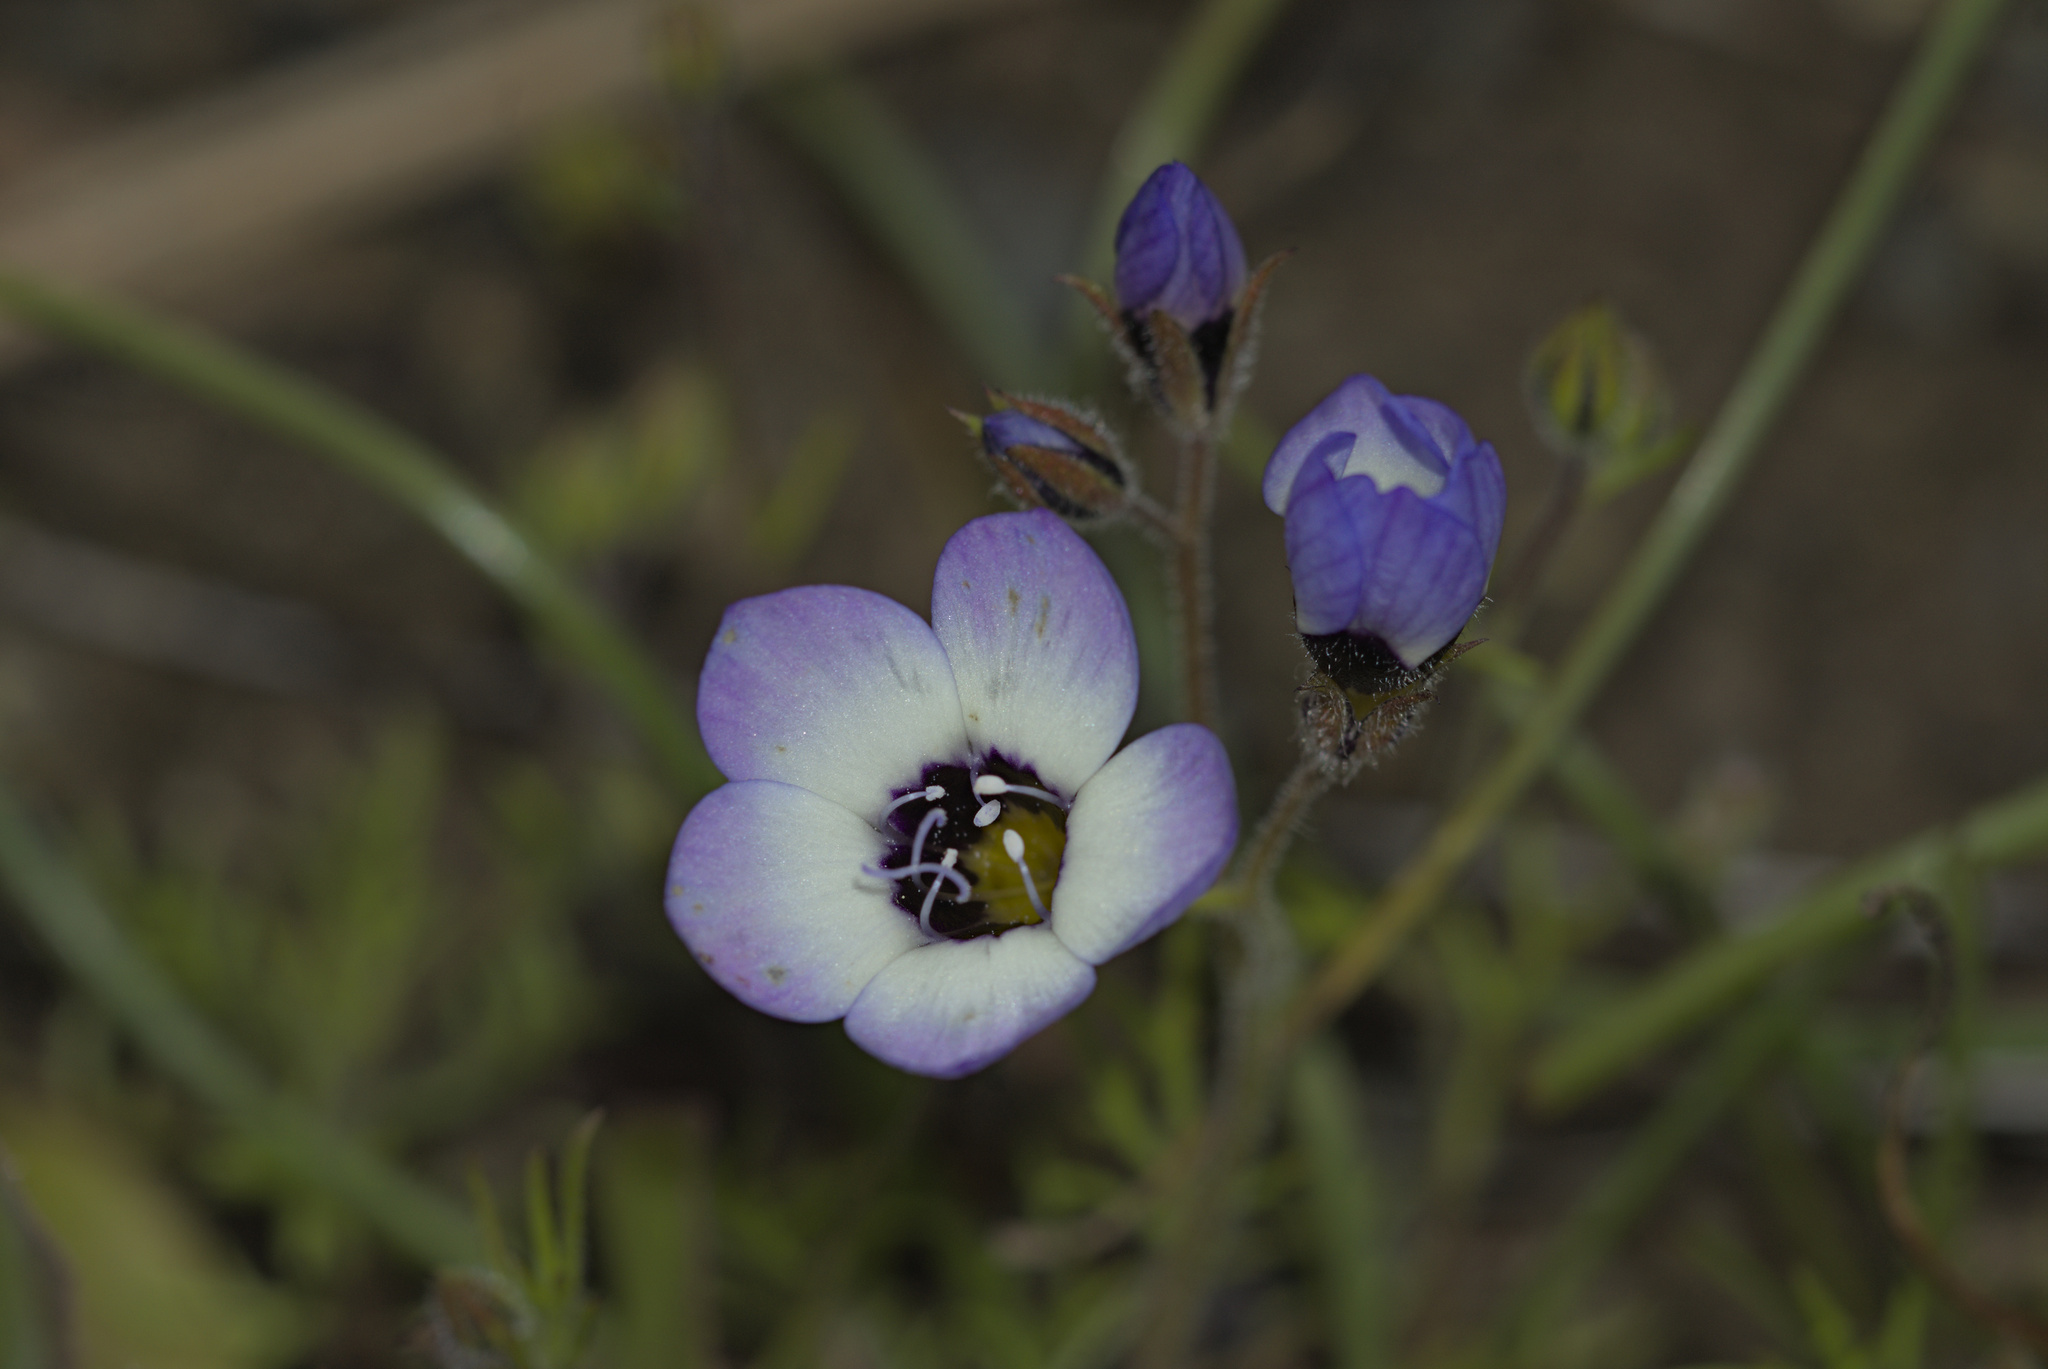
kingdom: Plantae
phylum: Tracheophyta
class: Magnoliopsida
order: Ericales
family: Polemoniaceae
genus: Gilia
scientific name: Gilia tricolor
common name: Bird's-eyes
